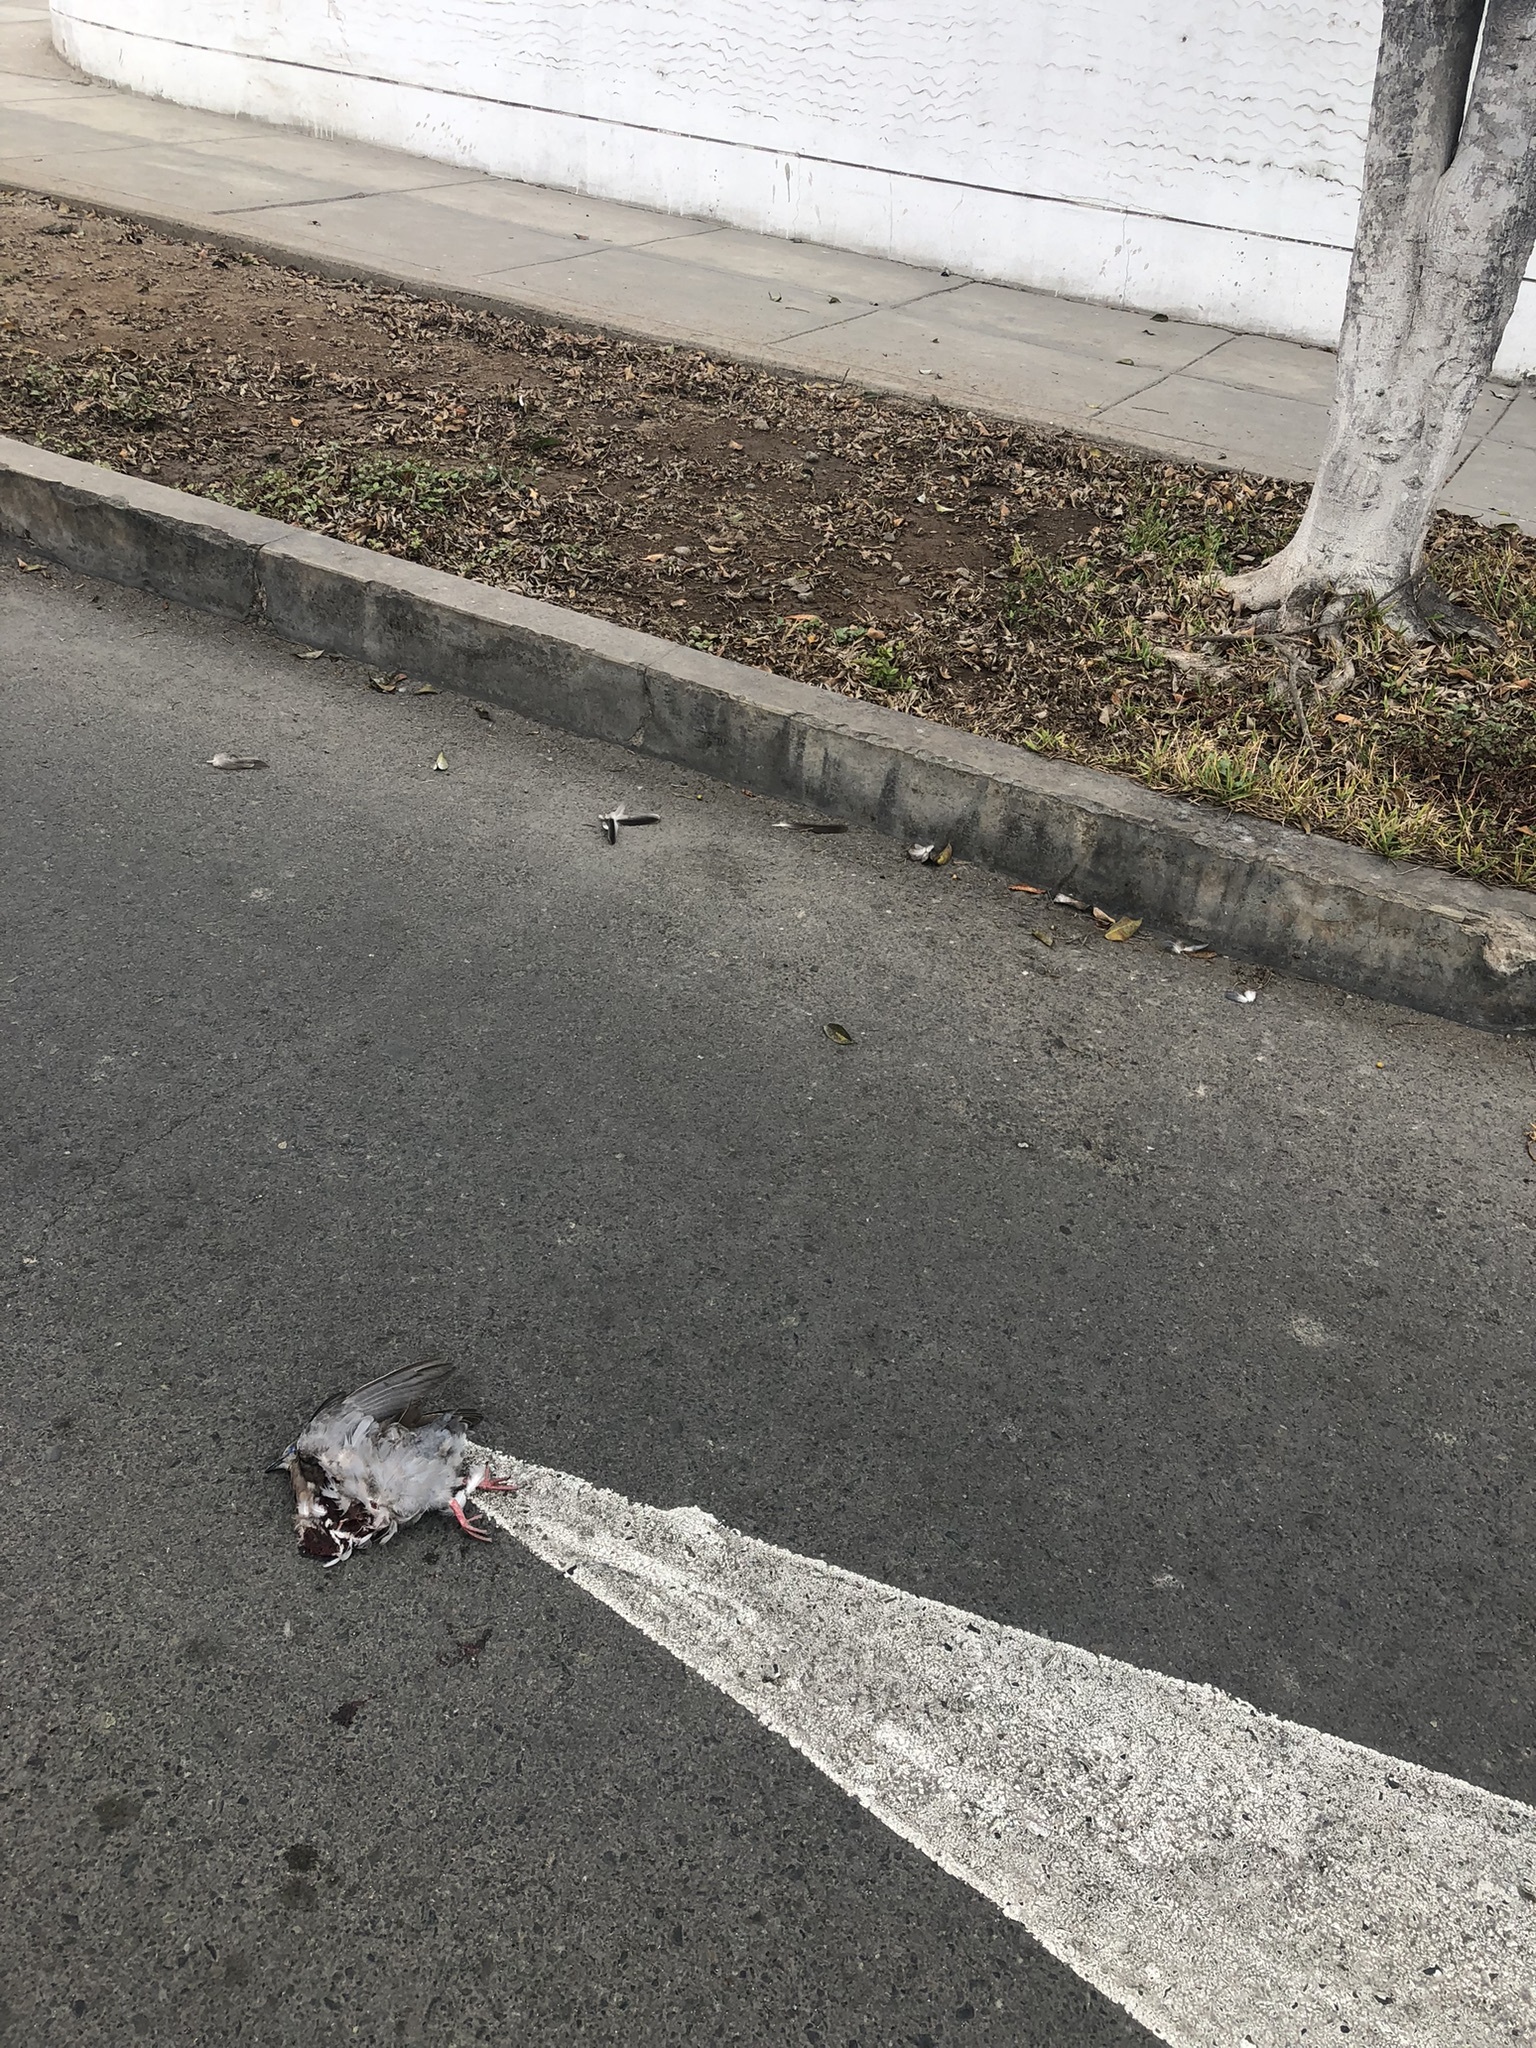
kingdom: Animalia
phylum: Chordata
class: Aves
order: Columbiformes
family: Columbidae
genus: Zenaida
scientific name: Zenaida meloda
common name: West peruvian dove
